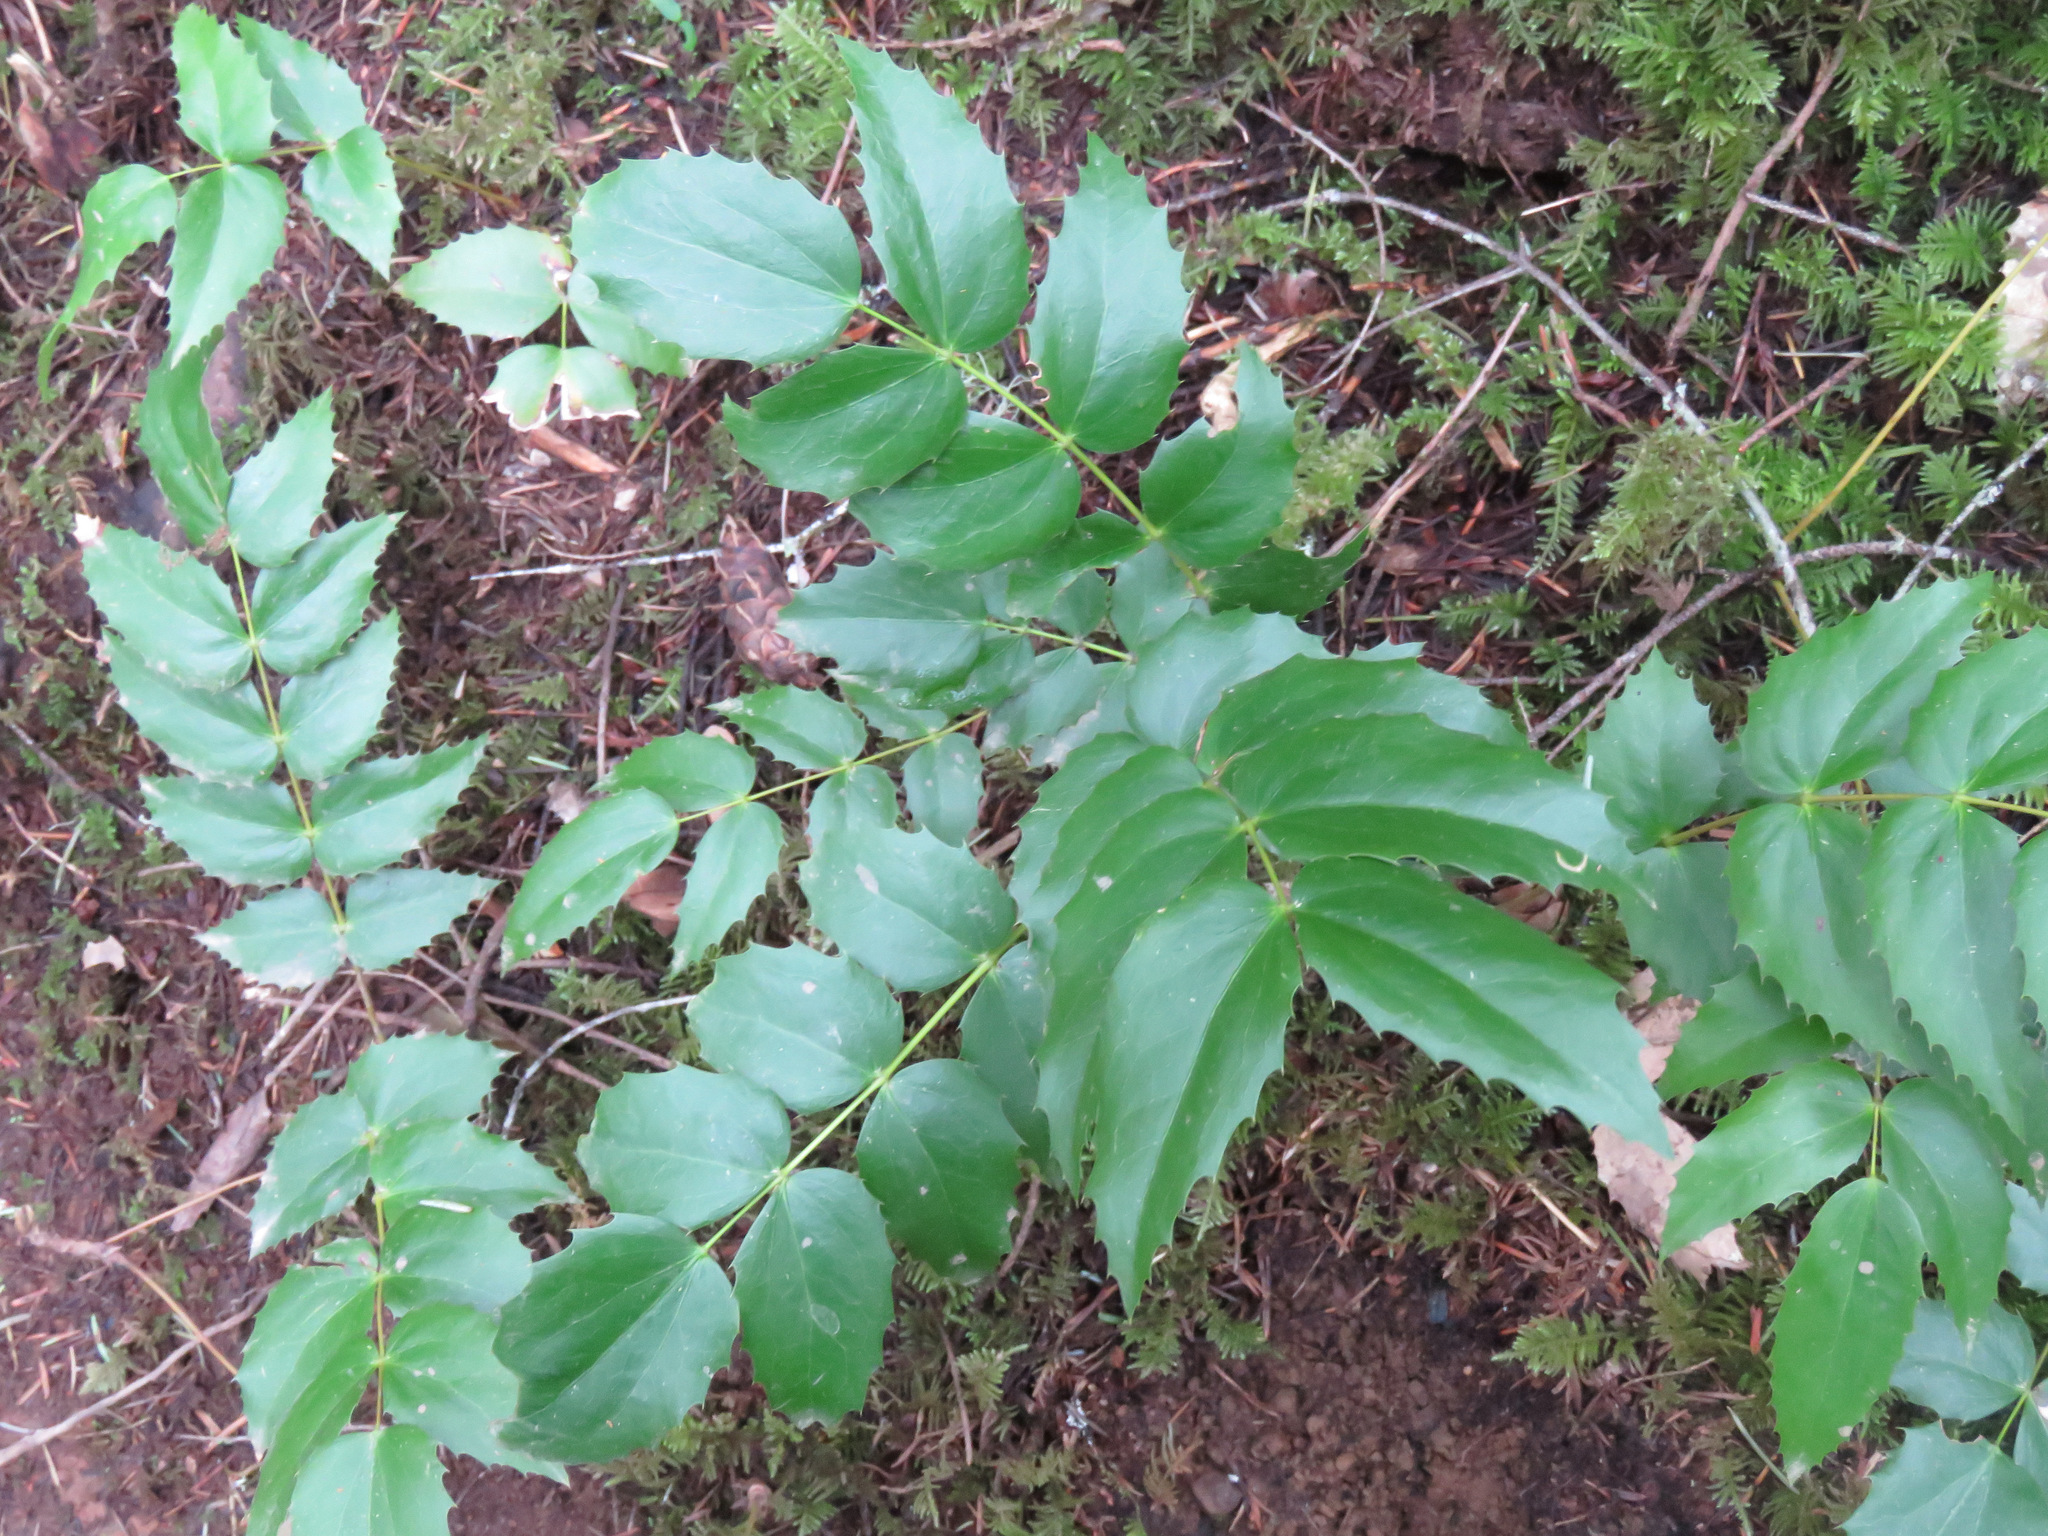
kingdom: Plantae
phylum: Tracheophyta
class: Magnoliopsida
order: Ranunculales
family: Berberidaceae
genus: Mahonia
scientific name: Mahonia nervosa
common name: Cascade oregon-grape
